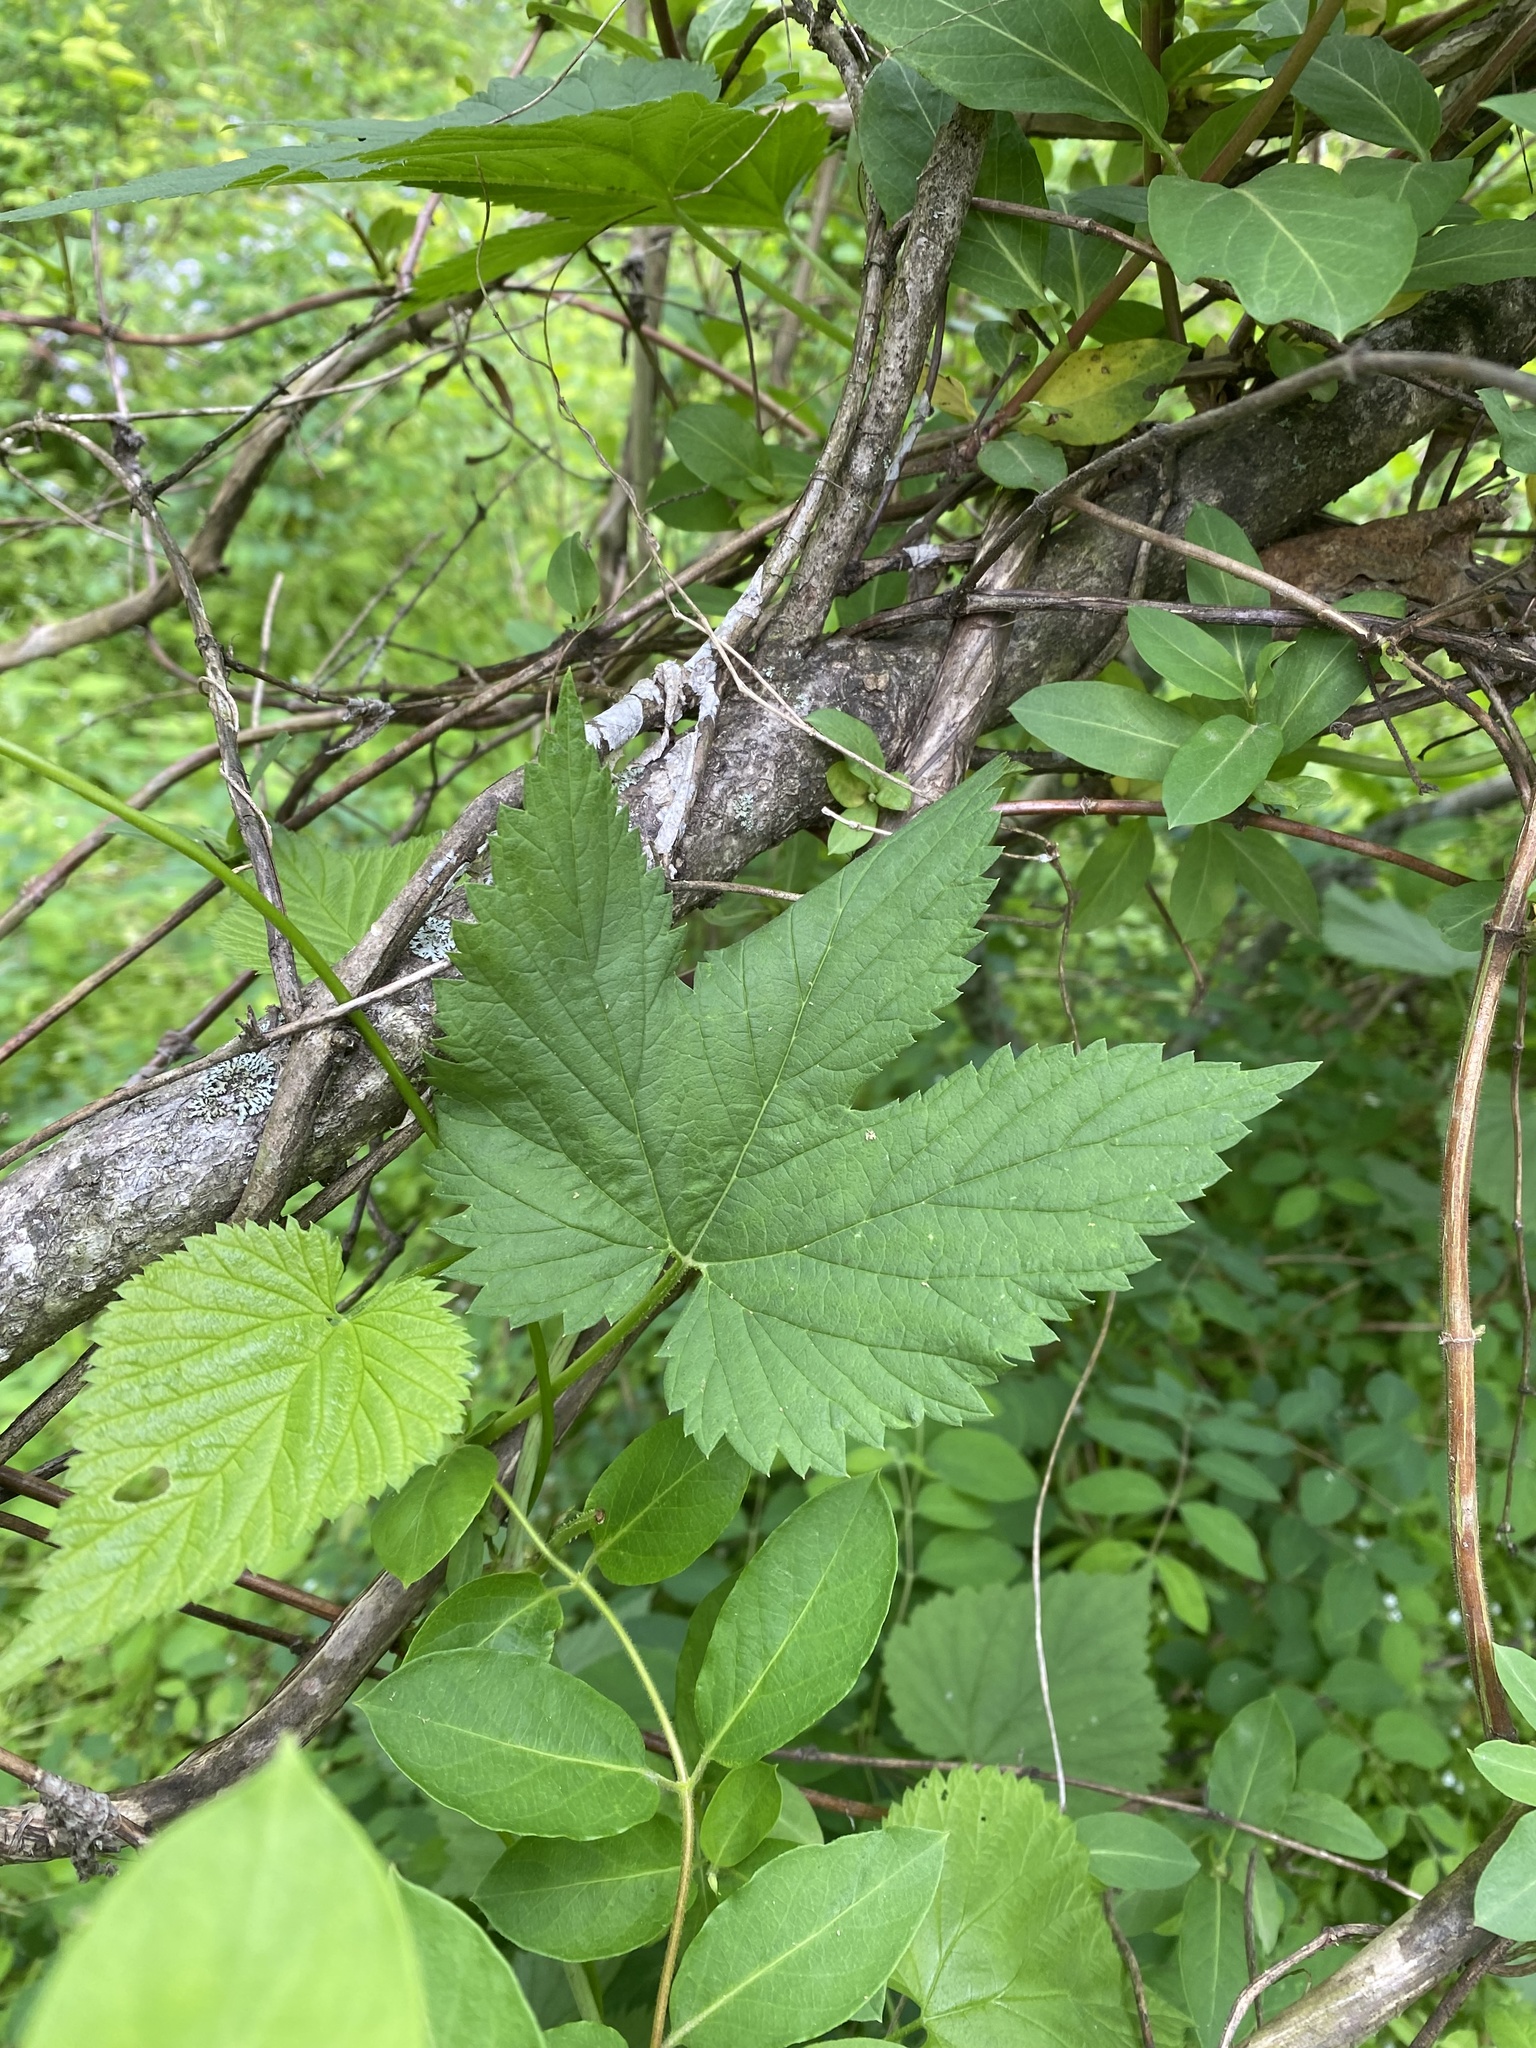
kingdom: Plantae
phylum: Tracheophyta
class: Magnoliopsida
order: Rosales
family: Cannabaceae
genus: Humulus
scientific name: Humulus lupulus
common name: Hop
